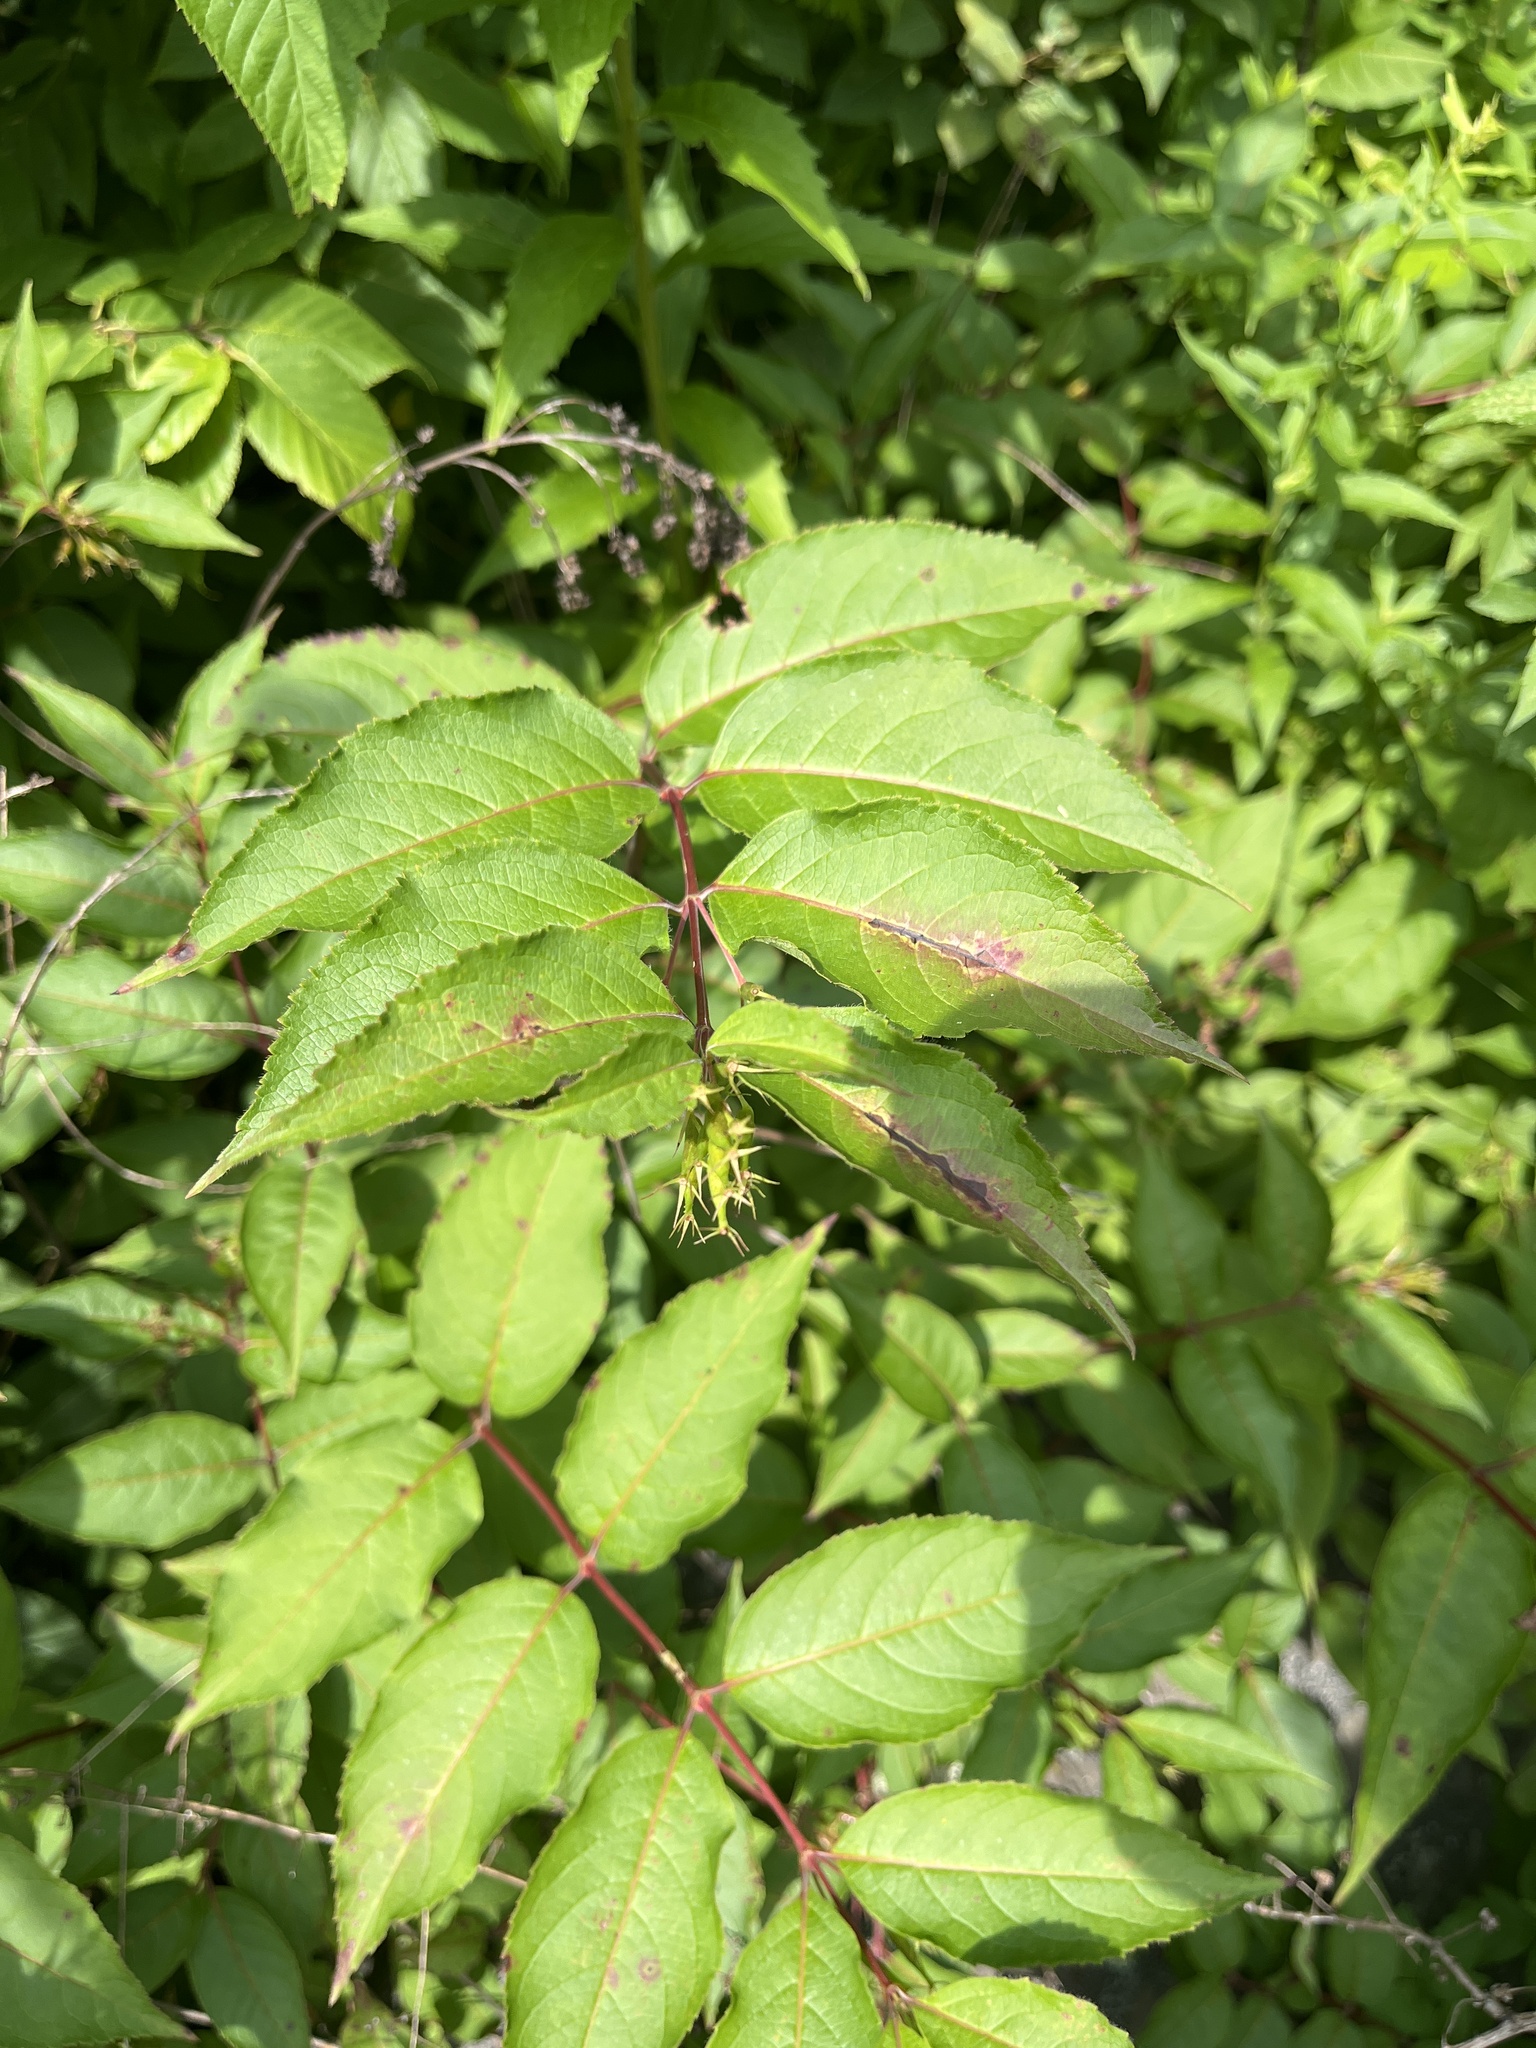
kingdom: Plantae
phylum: Tracheophyta
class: Magnoliopsida
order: Dipsacales
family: Caprifoliaceae
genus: Diervilla
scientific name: Diervilla lonicera
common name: Bush-honeysuckle
